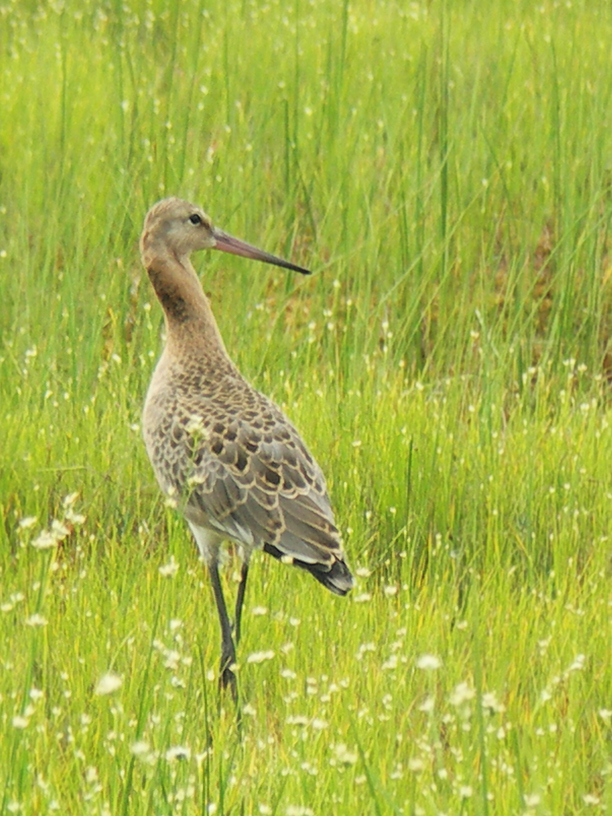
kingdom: Animalia
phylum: Chordata
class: Aves
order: Charadriiformes
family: Scolopacidae
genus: Limosa
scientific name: Limosa limosa
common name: Black-tailed godwit
